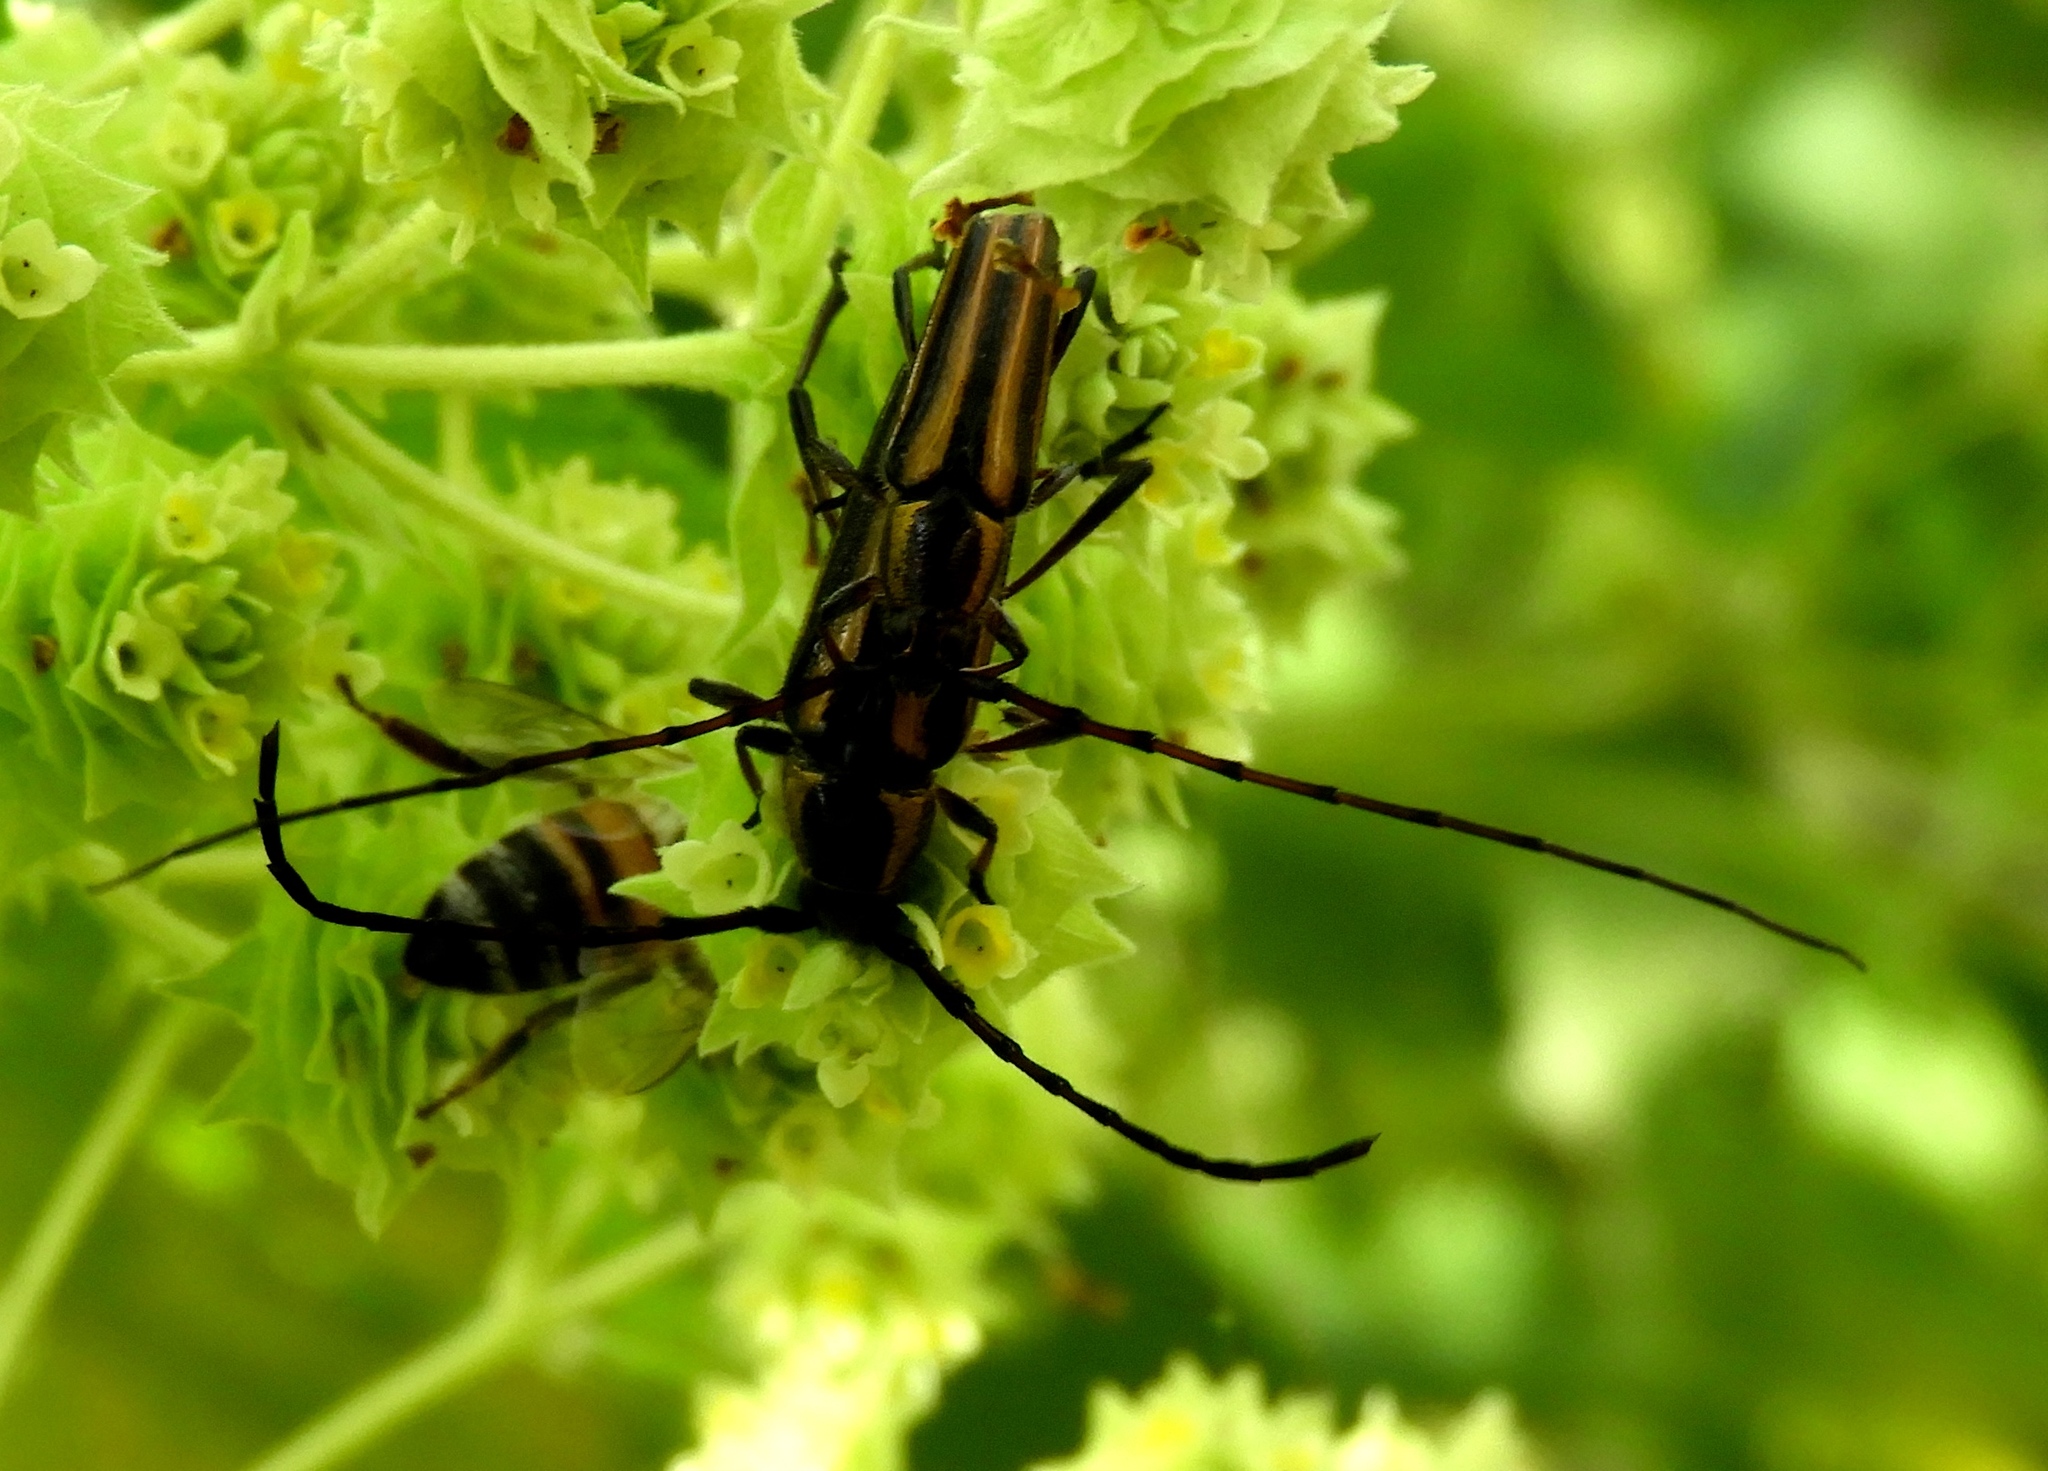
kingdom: Animalia
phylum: Arthropoda
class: Insecta
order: Coleoptera
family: Cerambycidae
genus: Sphaenothecus
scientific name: Sphaenothecus maccartyi
